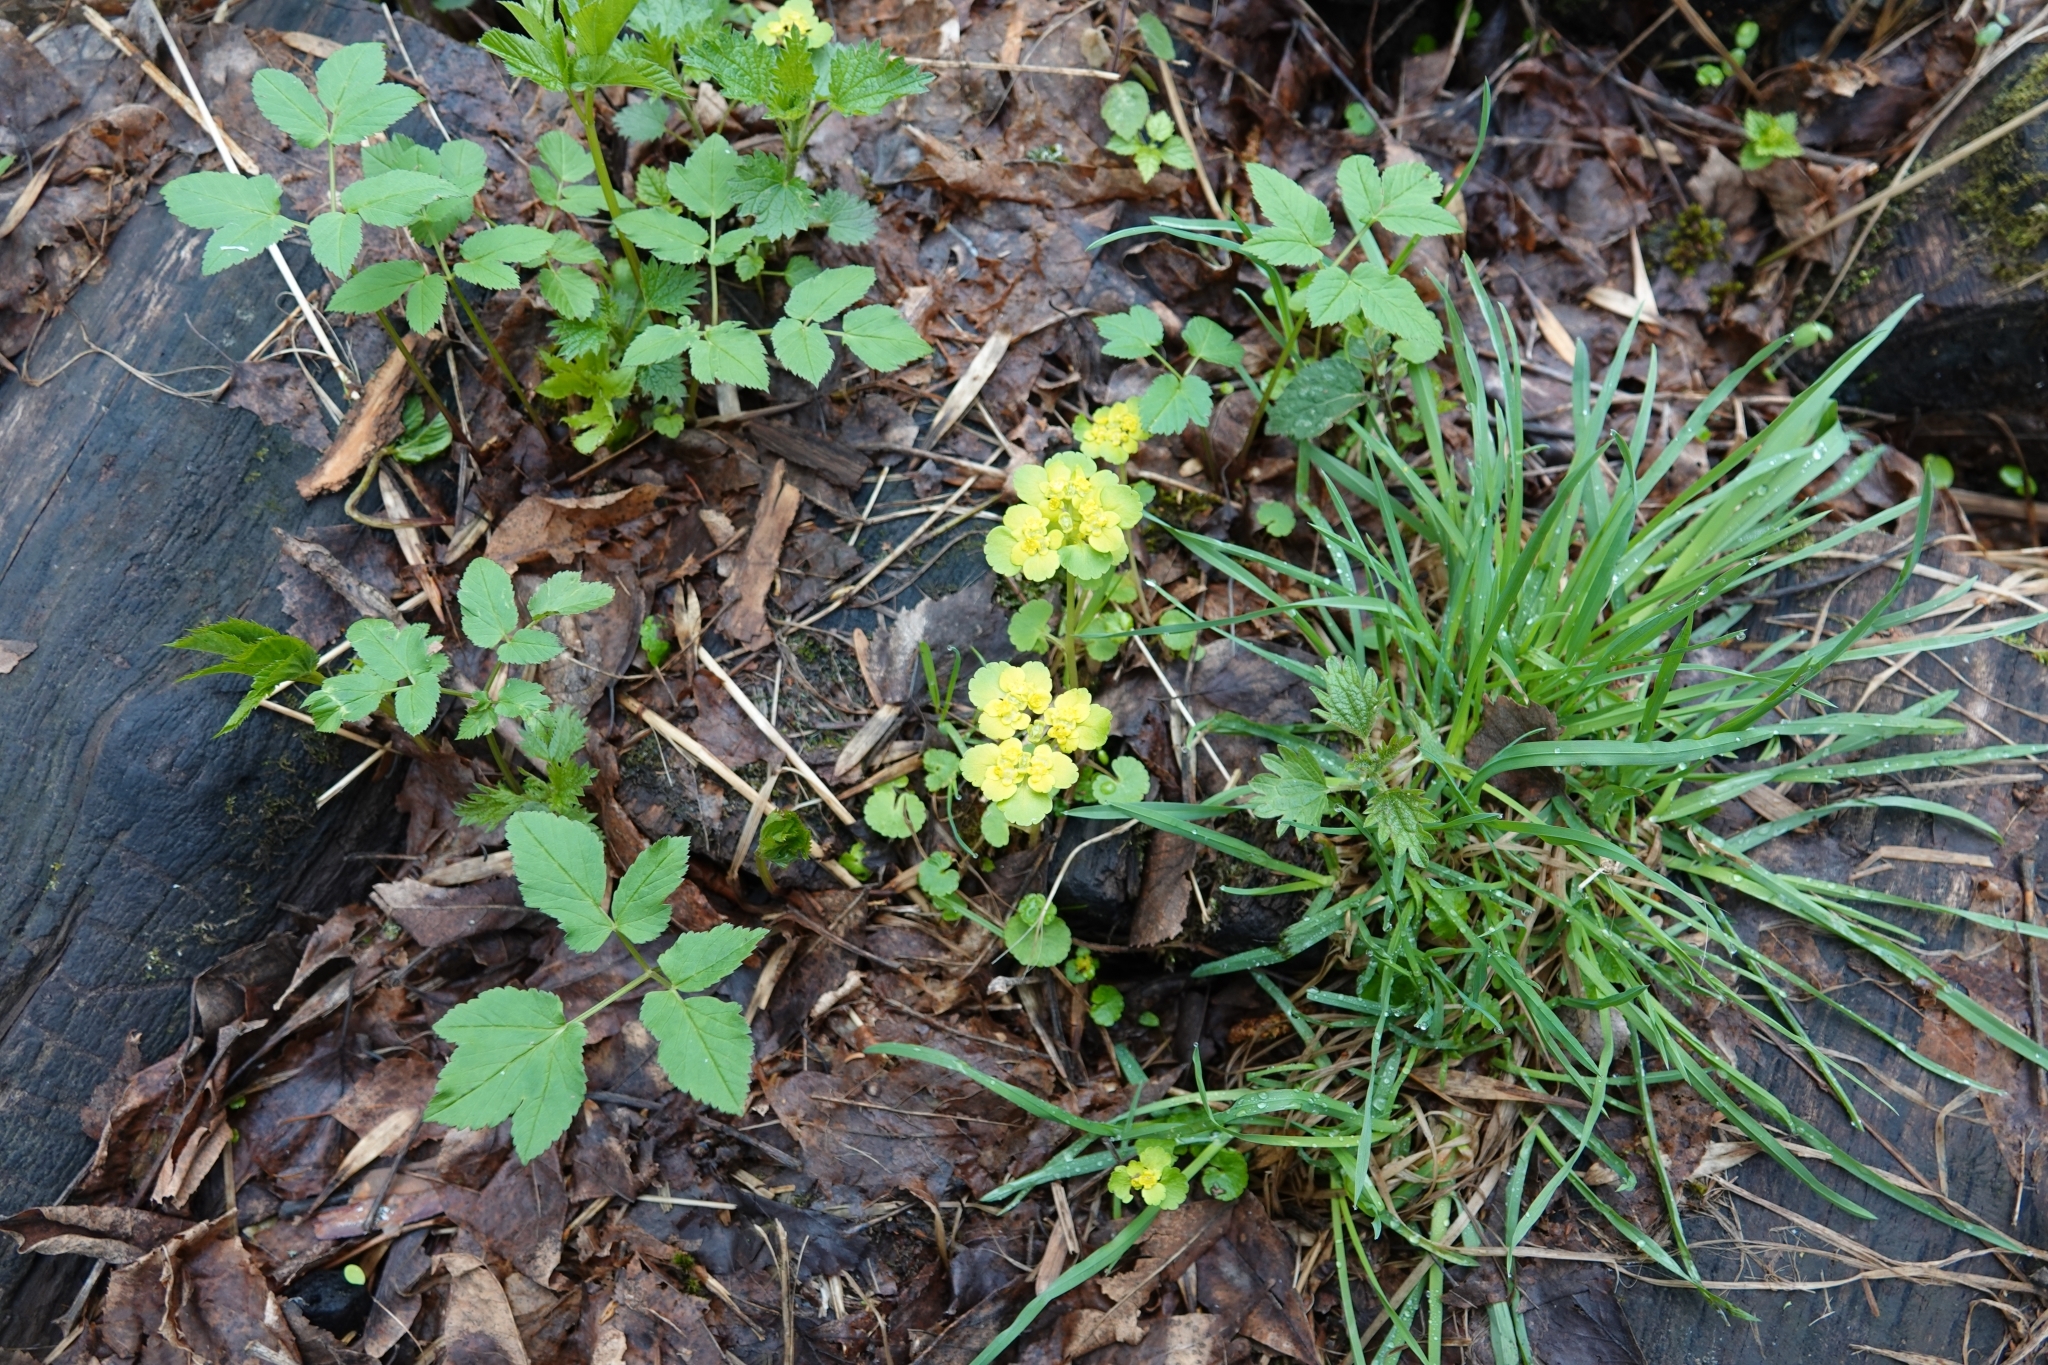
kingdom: Plantae
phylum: Tracheophyta
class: Magnoliopsida
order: Saxifragales
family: Saxifragaceae
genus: Chrysosplenium
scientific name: Chrysosplenium alternifolium
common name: Alternate-leaved golden-saxifrage
